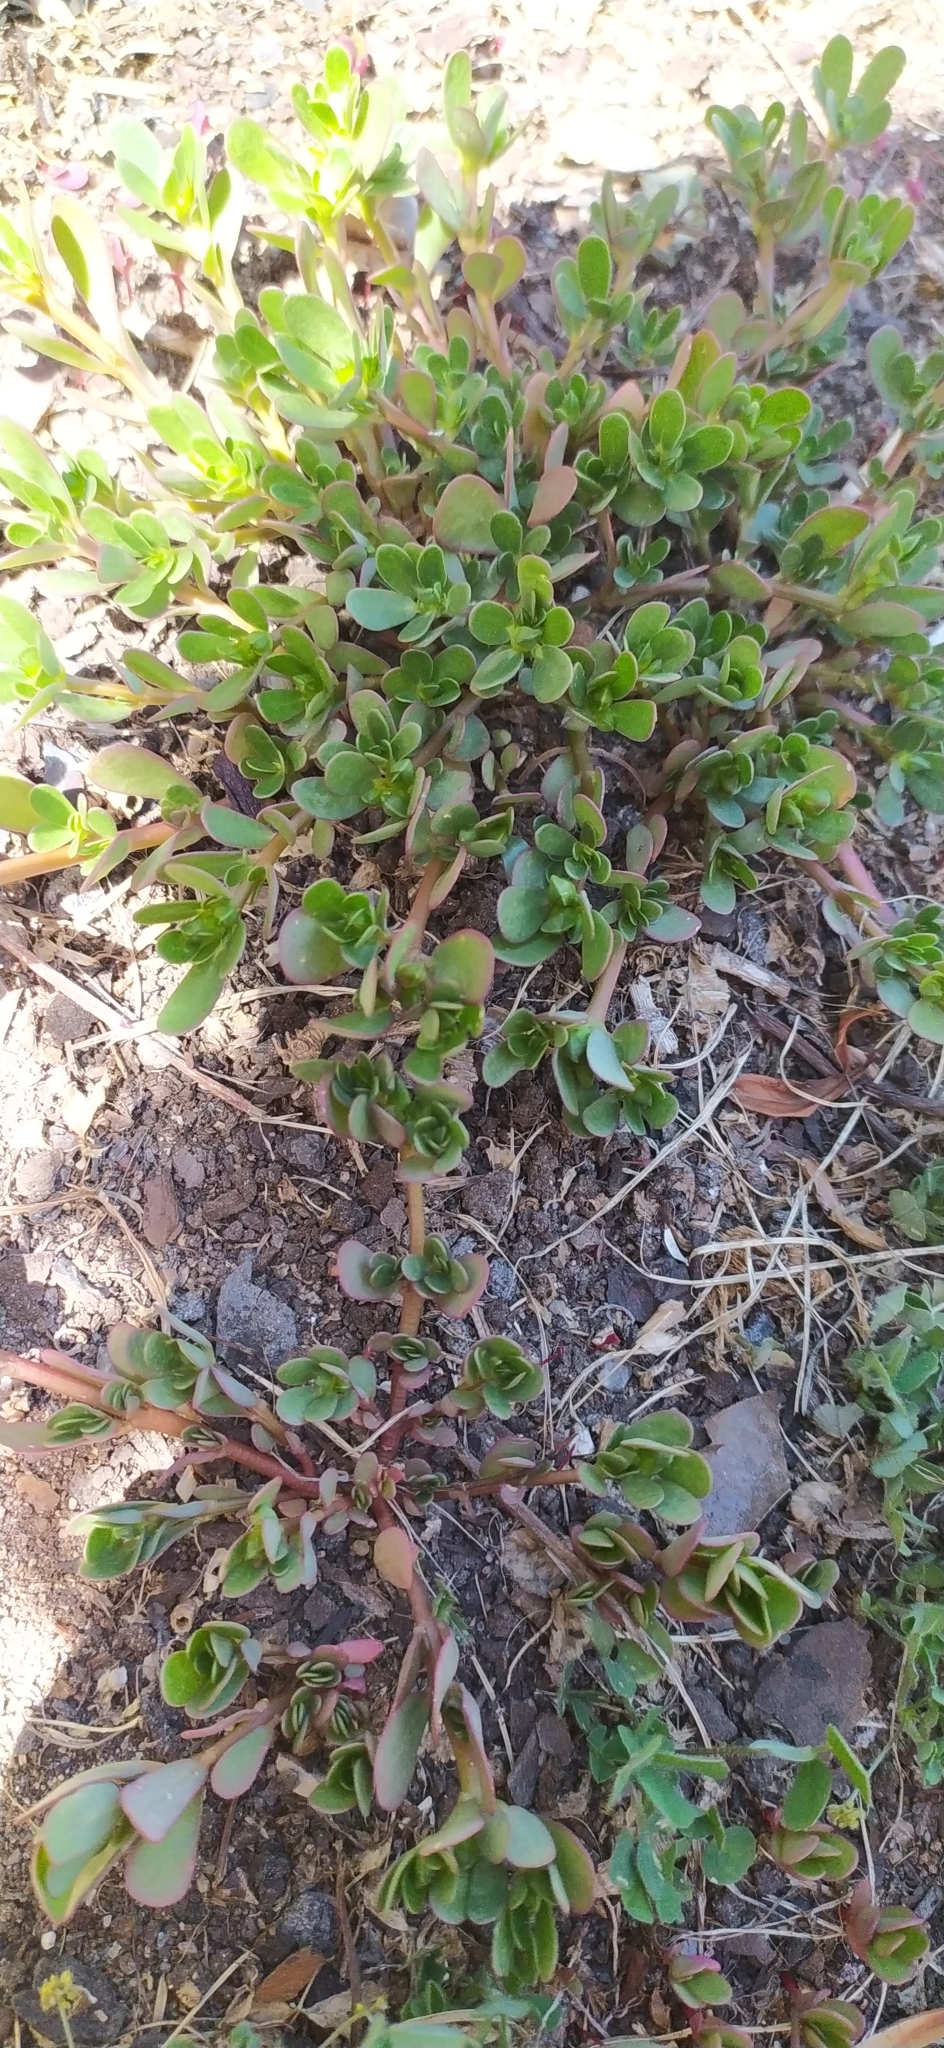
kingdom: Plantae
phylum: Tracheophyta
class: Magnoliopsida
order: Caryophyllales
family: Portulacaceae
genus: Portulaca
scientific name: Portulaca oleracea
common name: Common purslane
